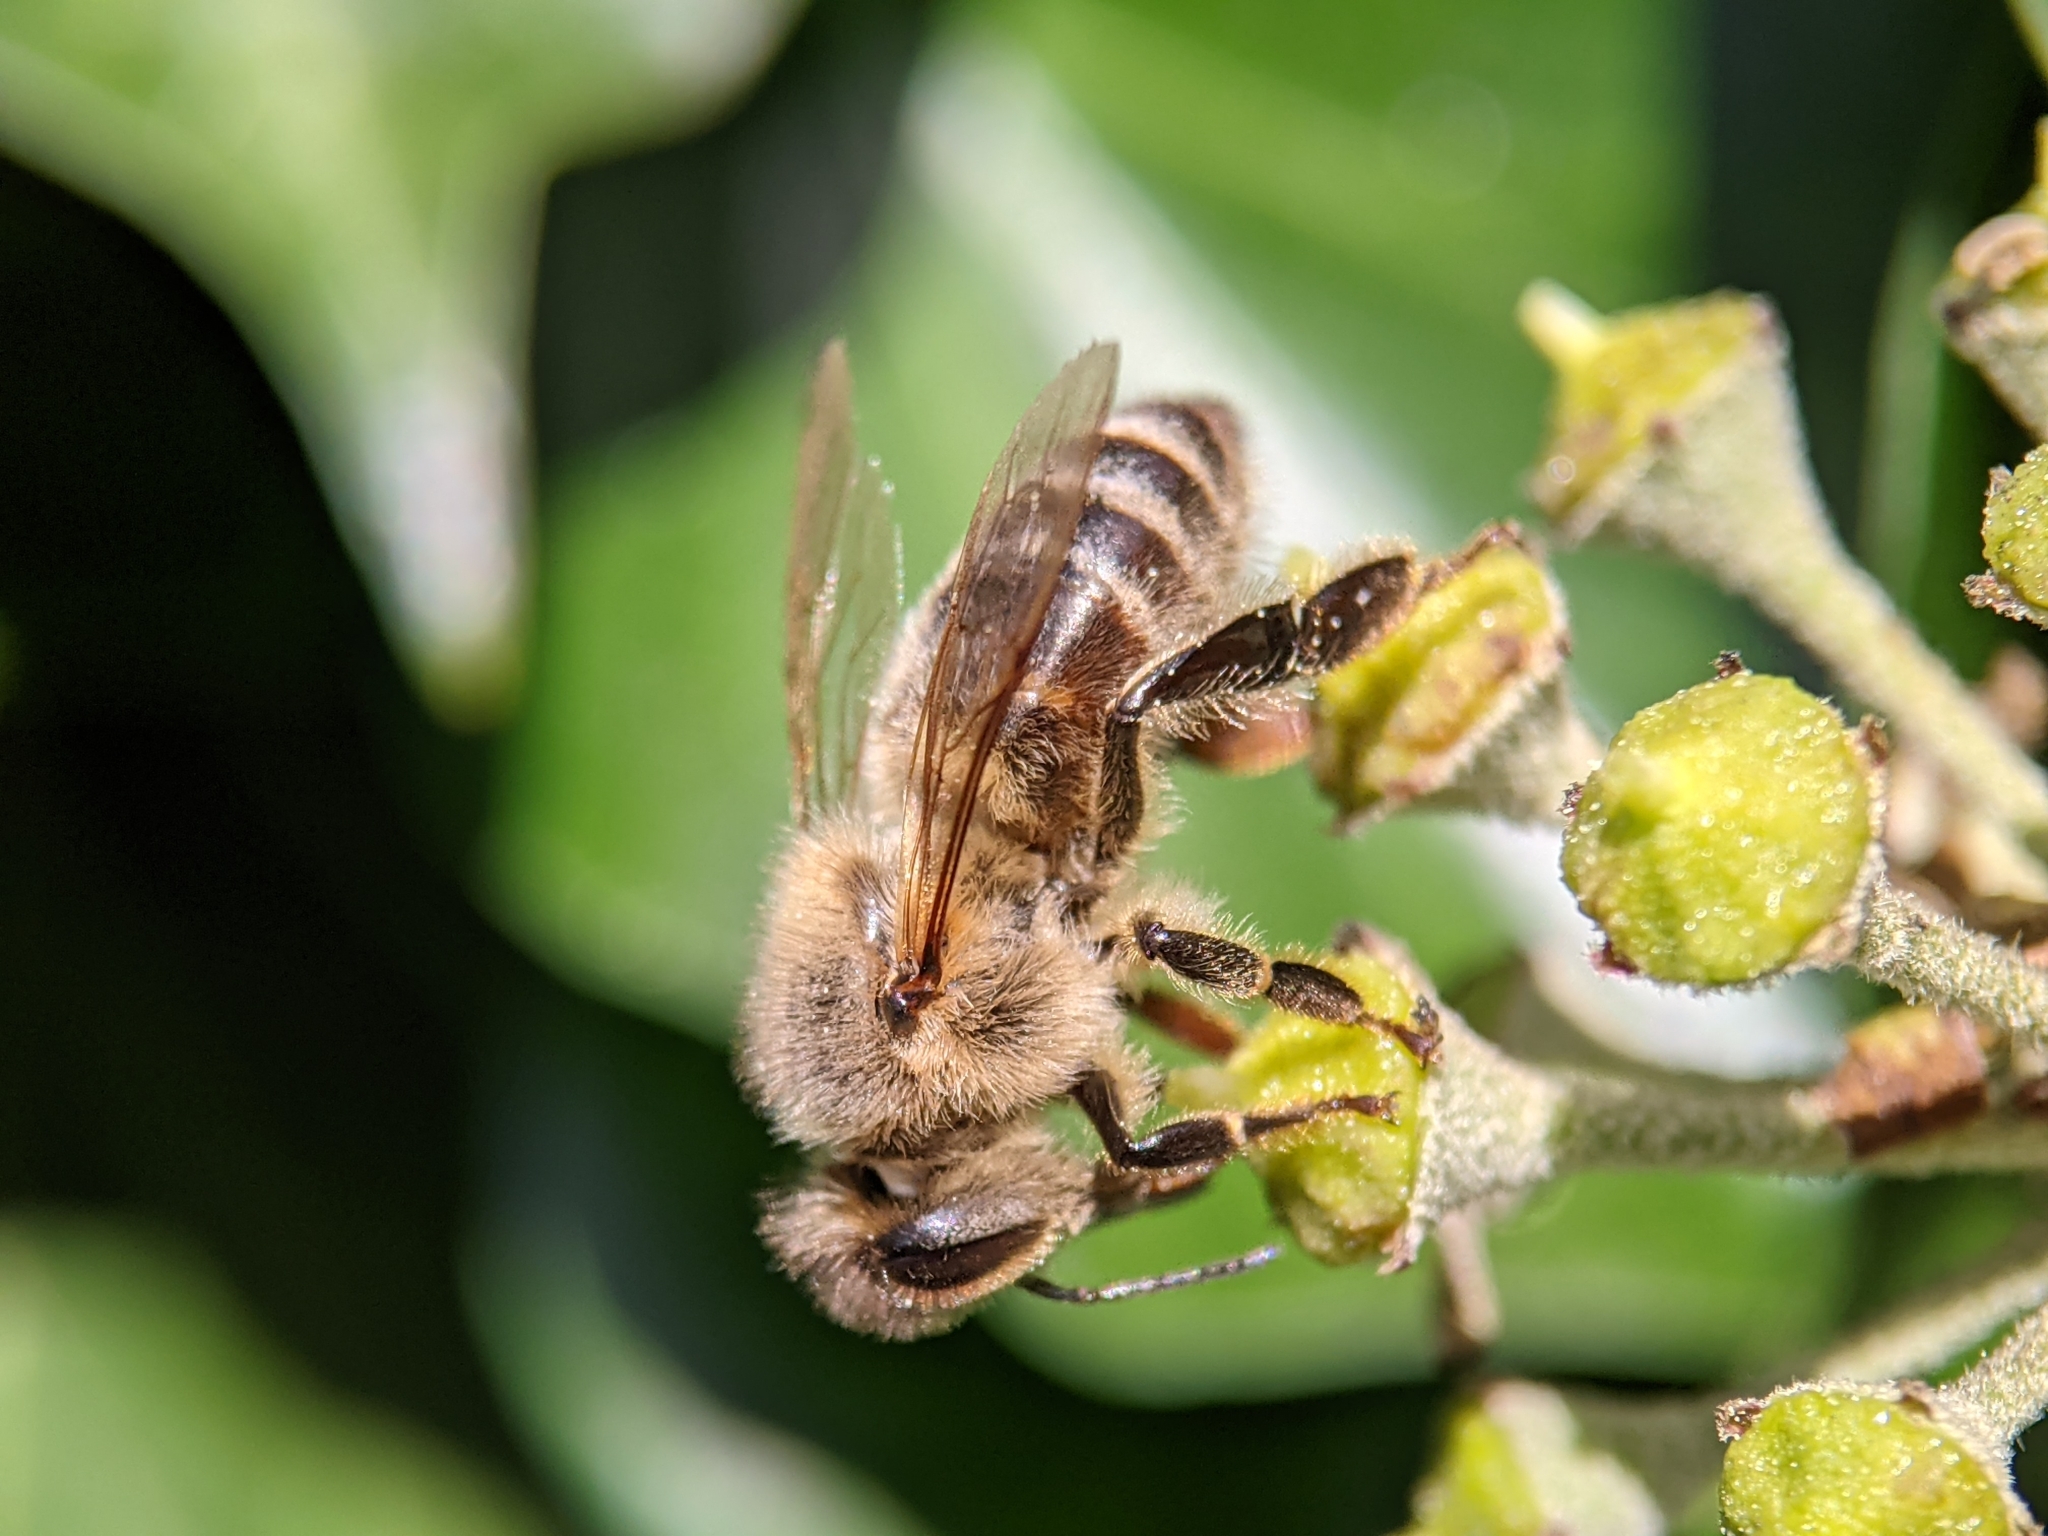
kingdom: Animalia
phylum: Arthropoda
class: Insecta
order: Hymenoptera
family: Apidae
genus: Apis
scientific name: Apis mellifera
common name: Honey bee
